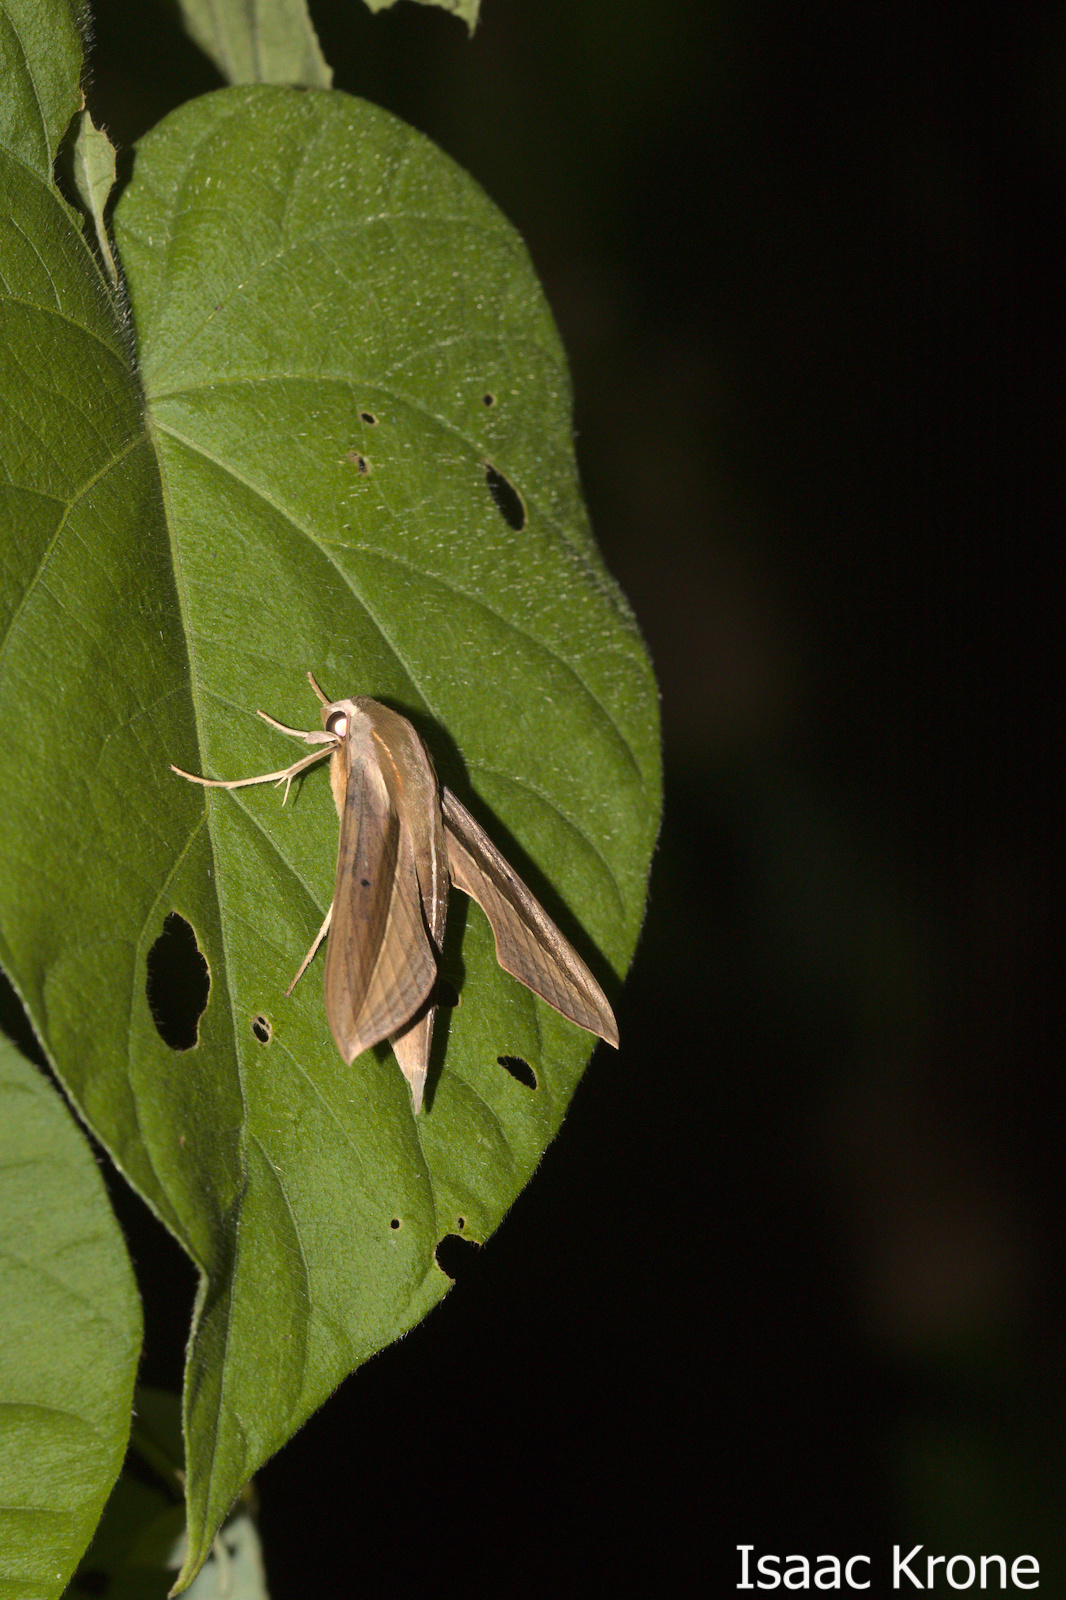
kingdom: Animalia
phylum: Arthropoda
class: Insecta
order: Lepidoptera
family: Sphingidae
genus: Theretra
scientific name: Theretra silhetensis
